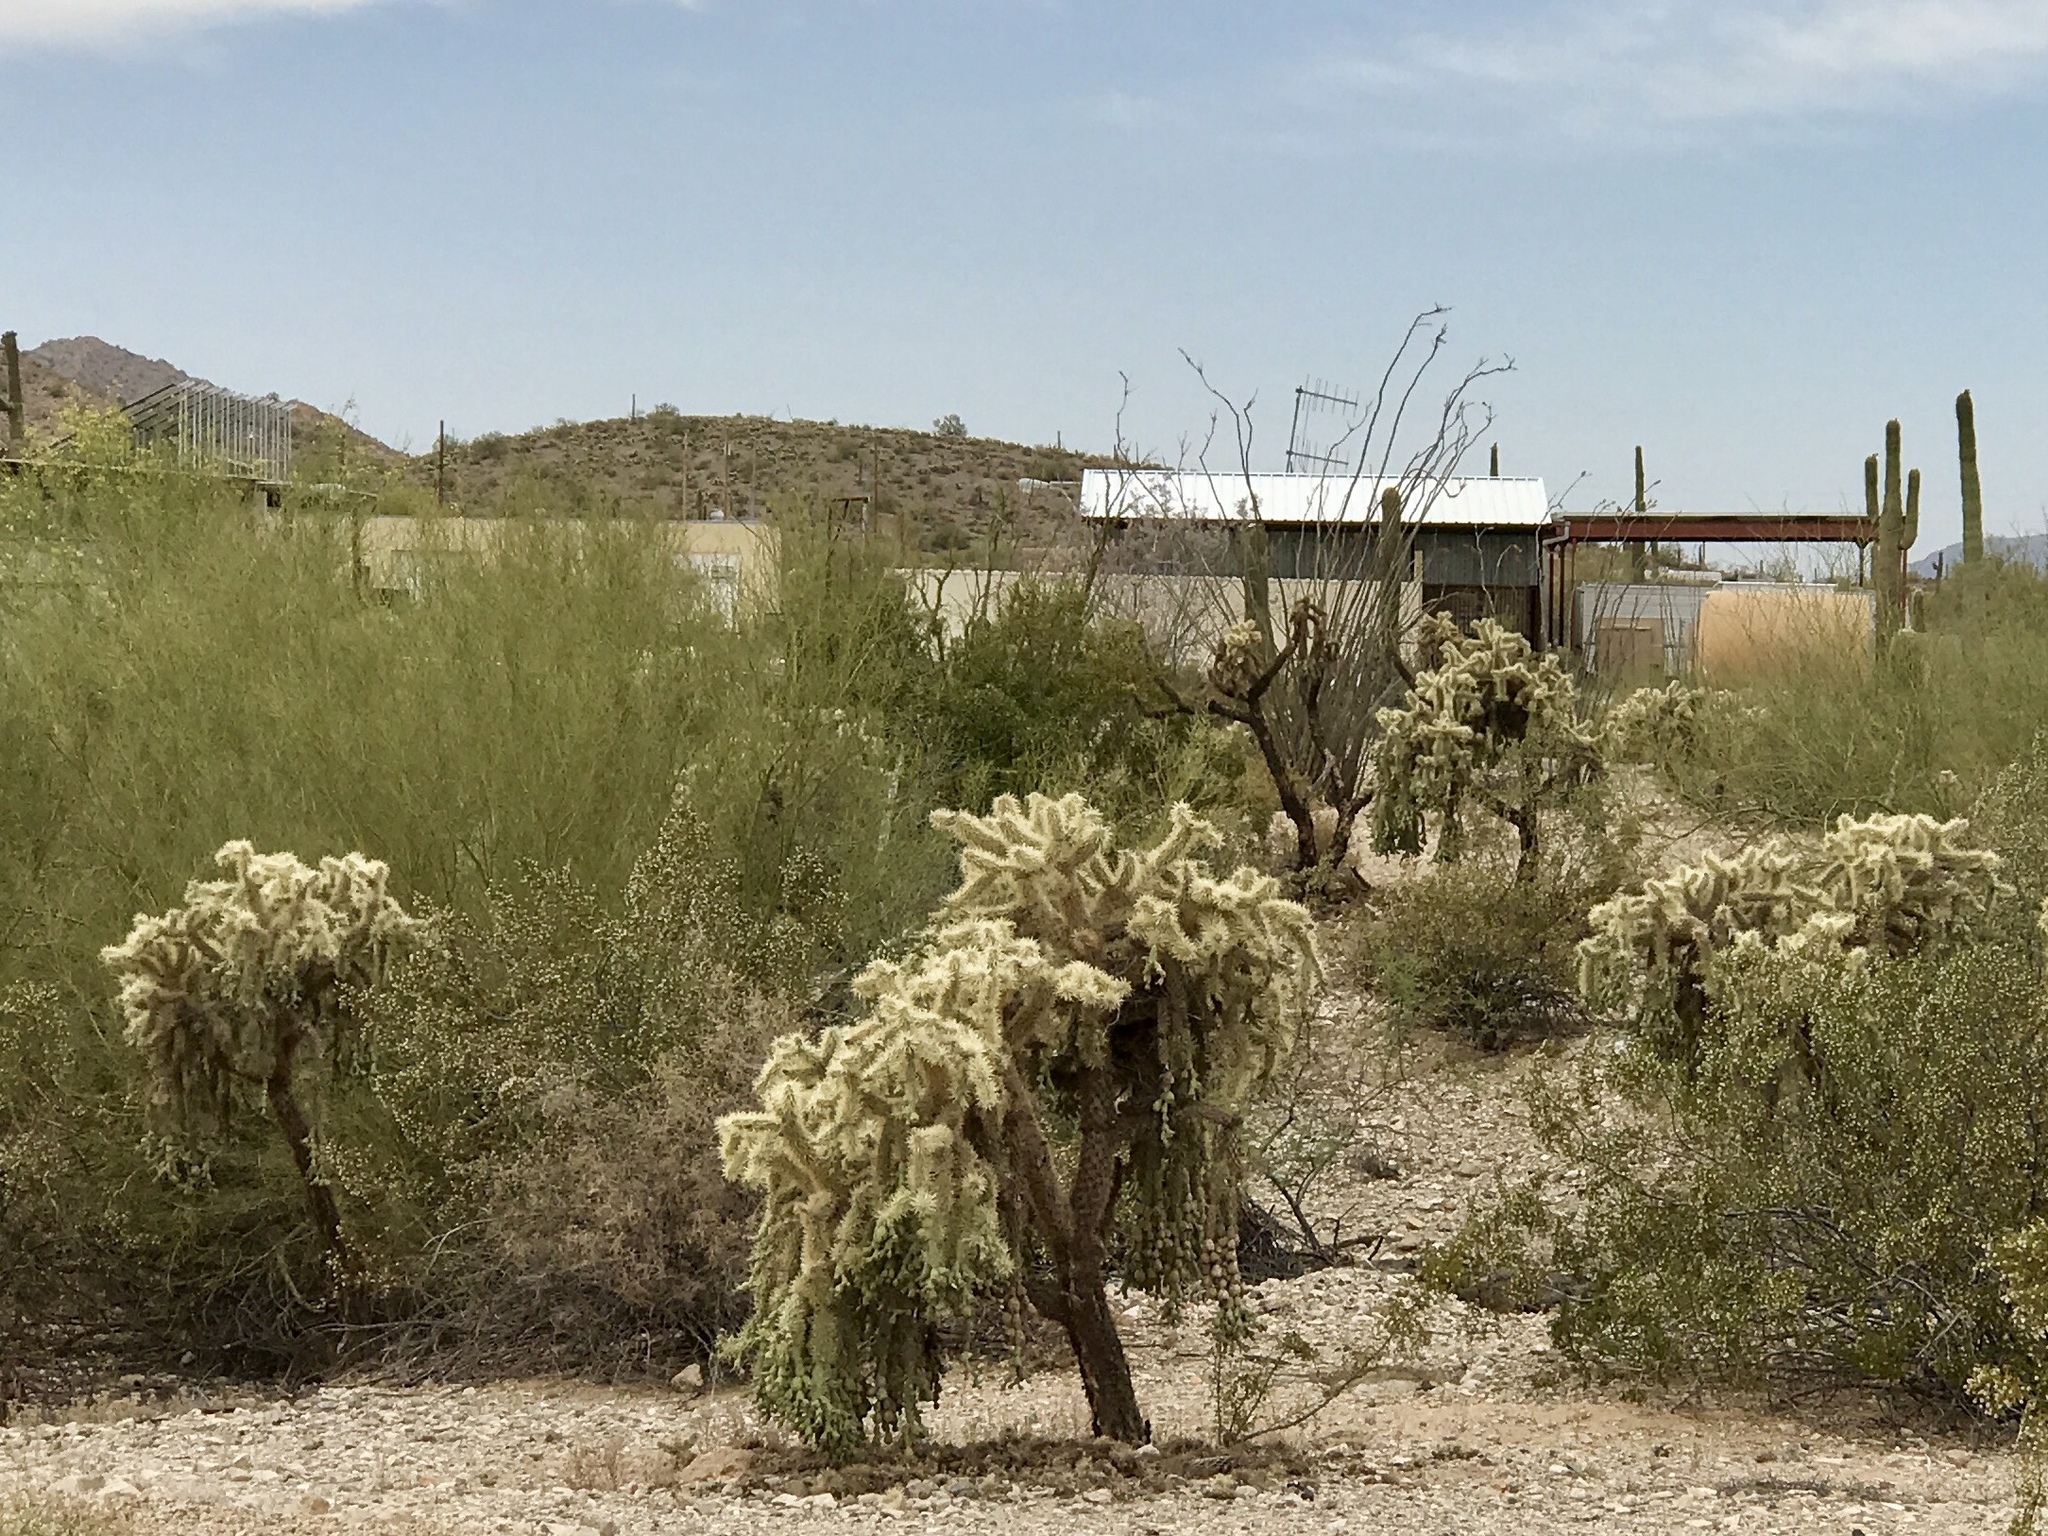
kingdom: Plantae
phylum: Tracheophyta
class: Magnoliopsida
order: Caryophyllales
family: Cactaceae
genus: Cylindropuntia
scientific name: Cylindropuntia fulgida
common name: Jumping cholla
